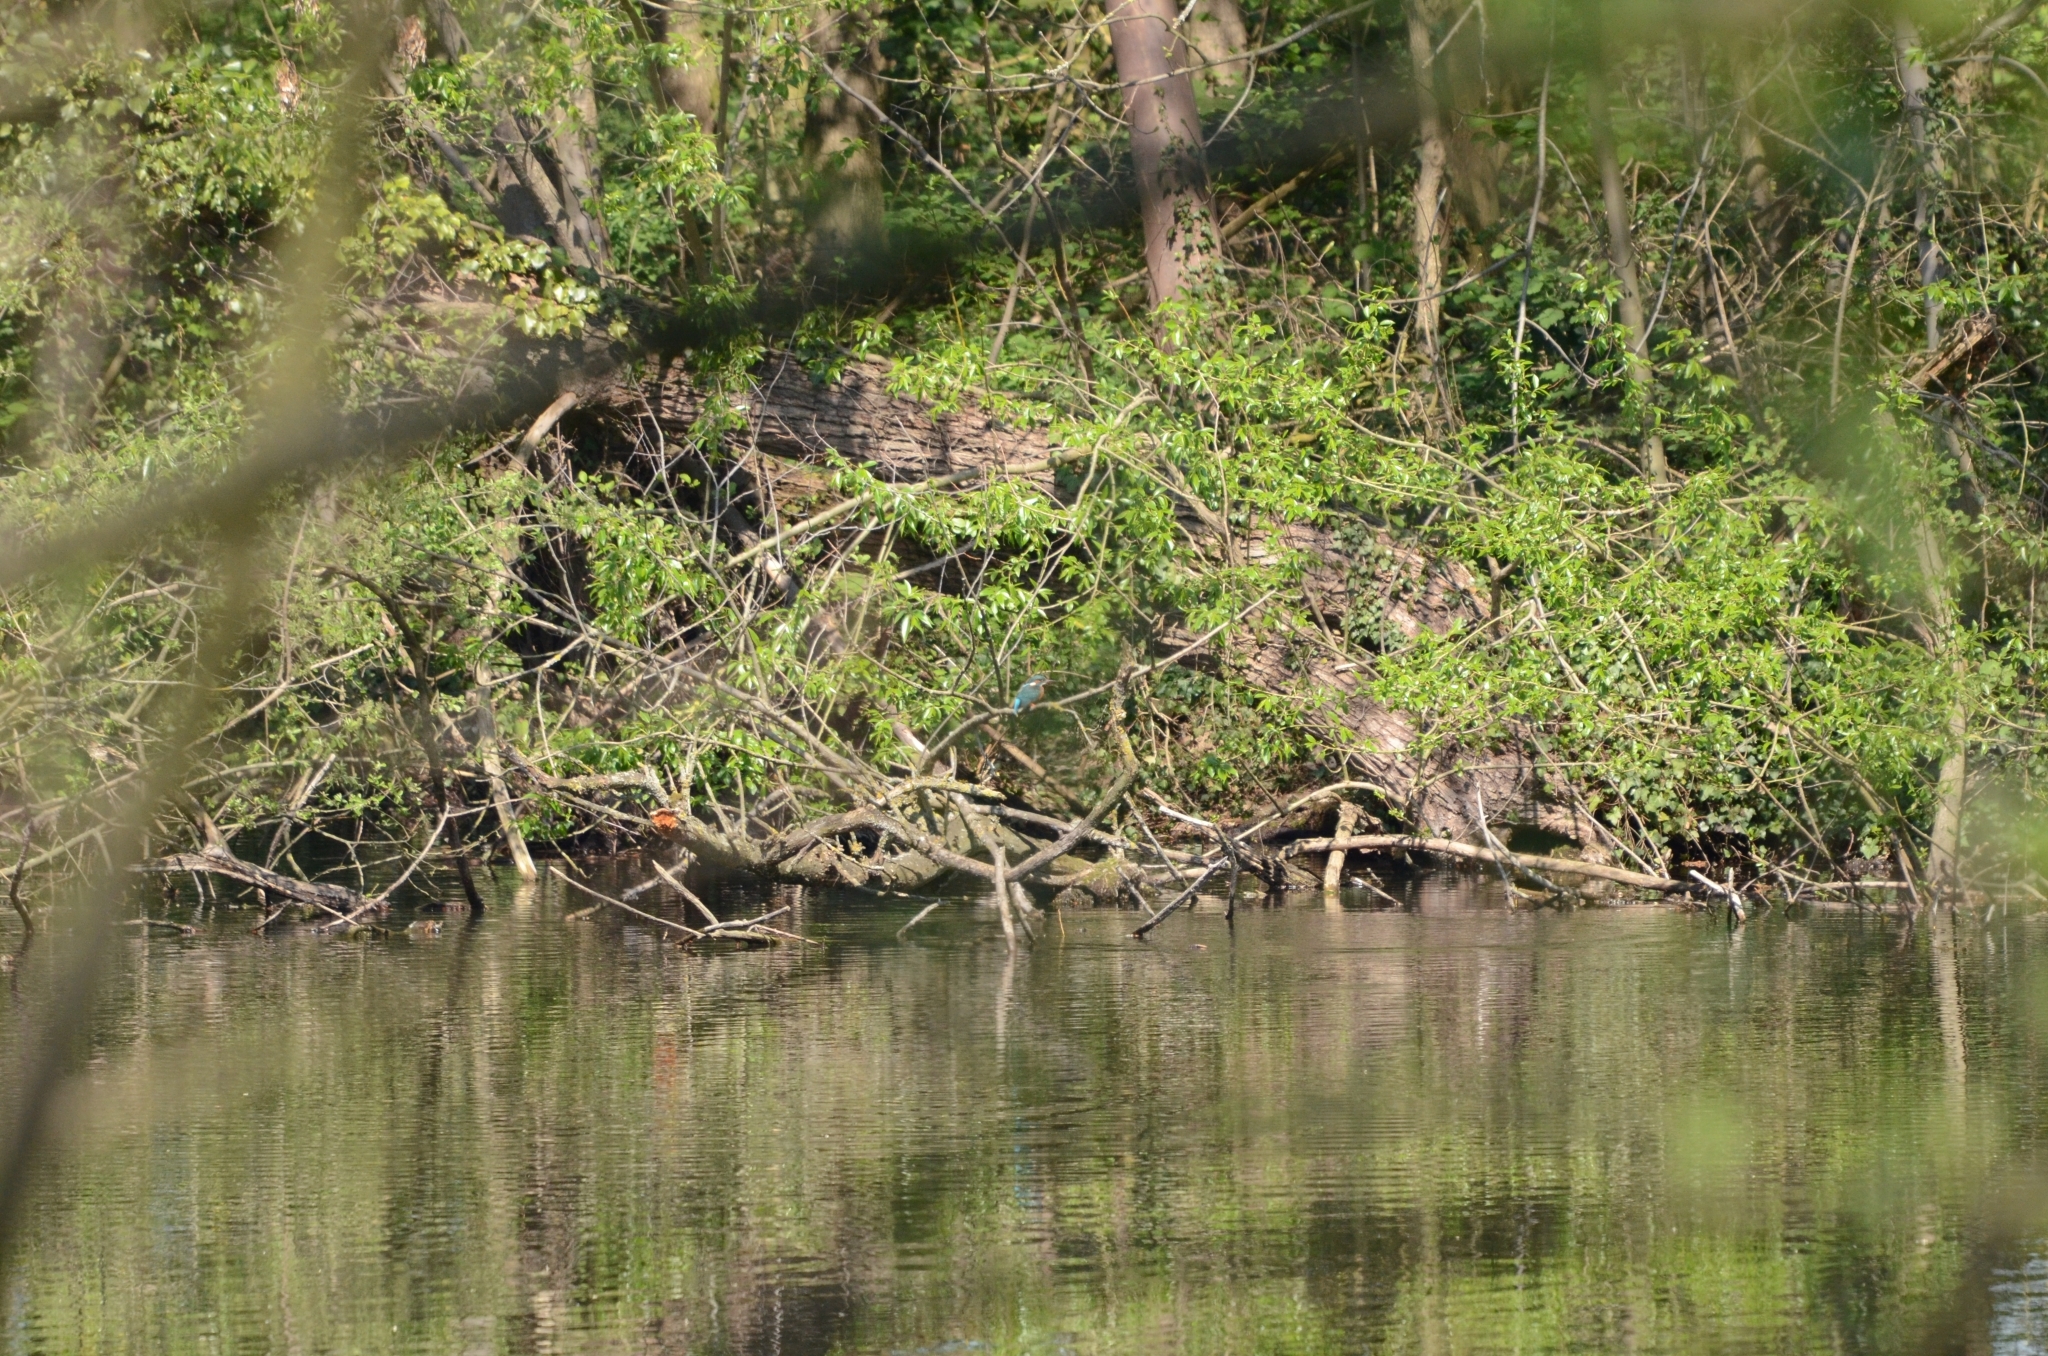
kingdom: Animalia
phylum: Chordata
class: Aves
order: Coraciiformes
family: Alcedinidae
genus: Alcedo
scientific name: Alcedo atthis
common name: Common kingfisher
